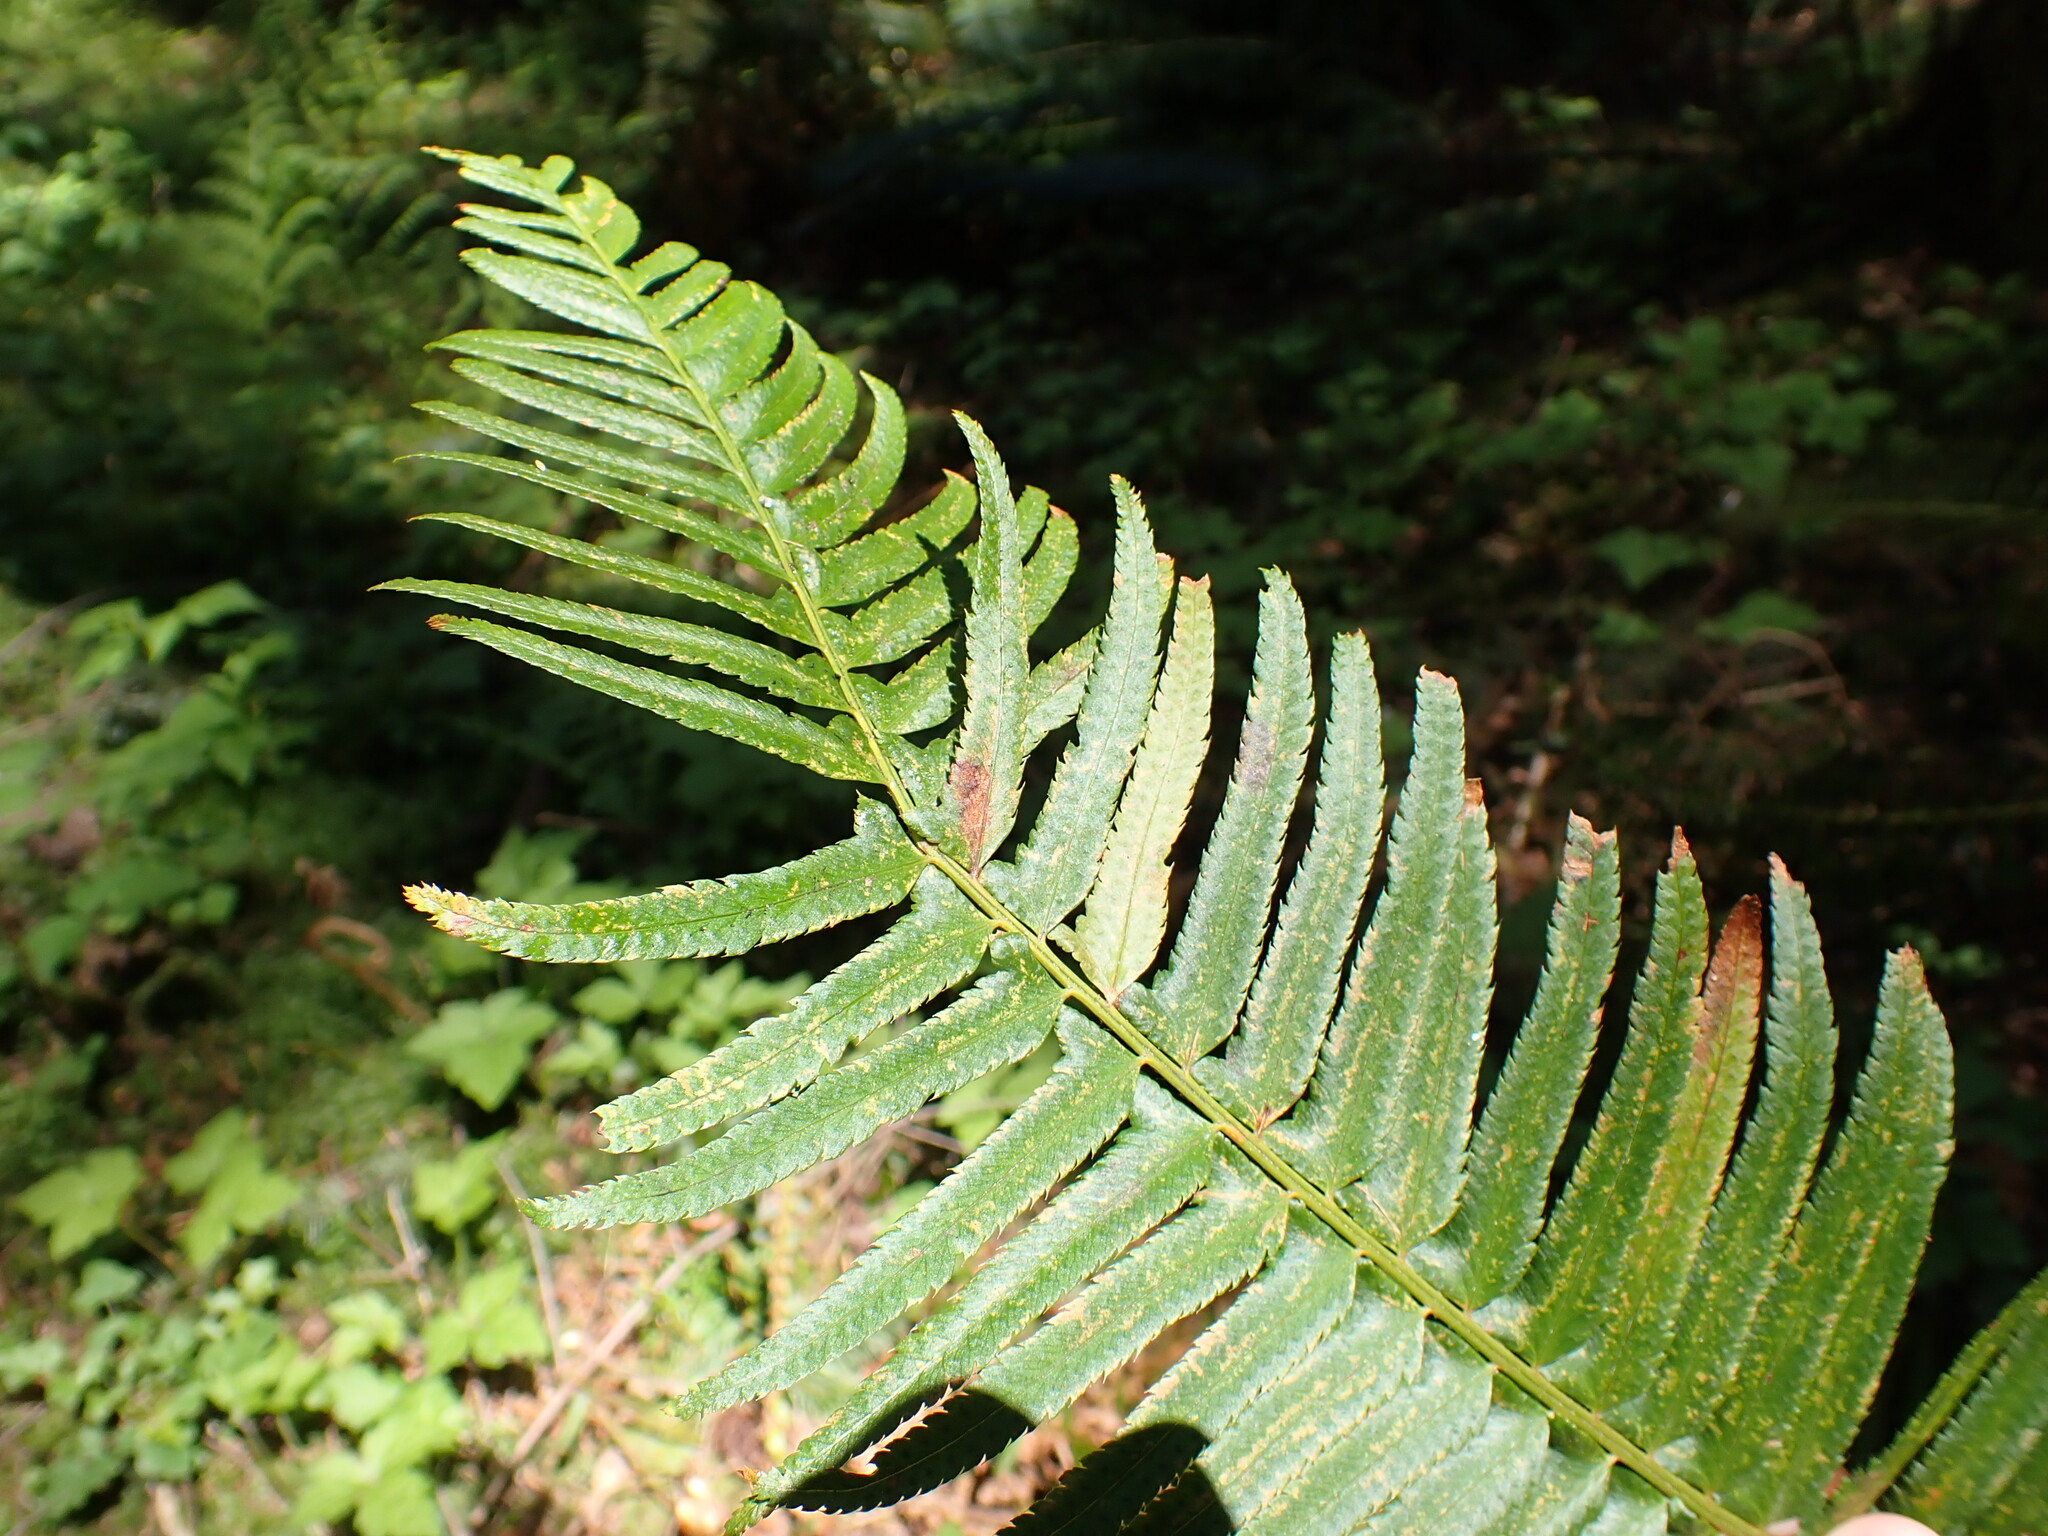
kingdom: Plantae
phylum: Tracheophyta
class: Polypodiopsida
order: Polypodiales
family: Dryopteridaceae
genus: Polystichum
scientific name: Polystichum munitum
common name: Western sword-fern
